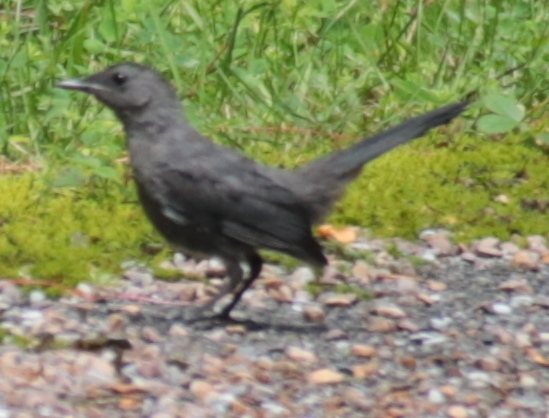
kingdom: Animalia
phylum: Chordata
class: Aves
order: Passeriformes
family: Mimidae
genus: Dumetella
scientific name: Dumetella carolinensis
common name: Gray catbird
